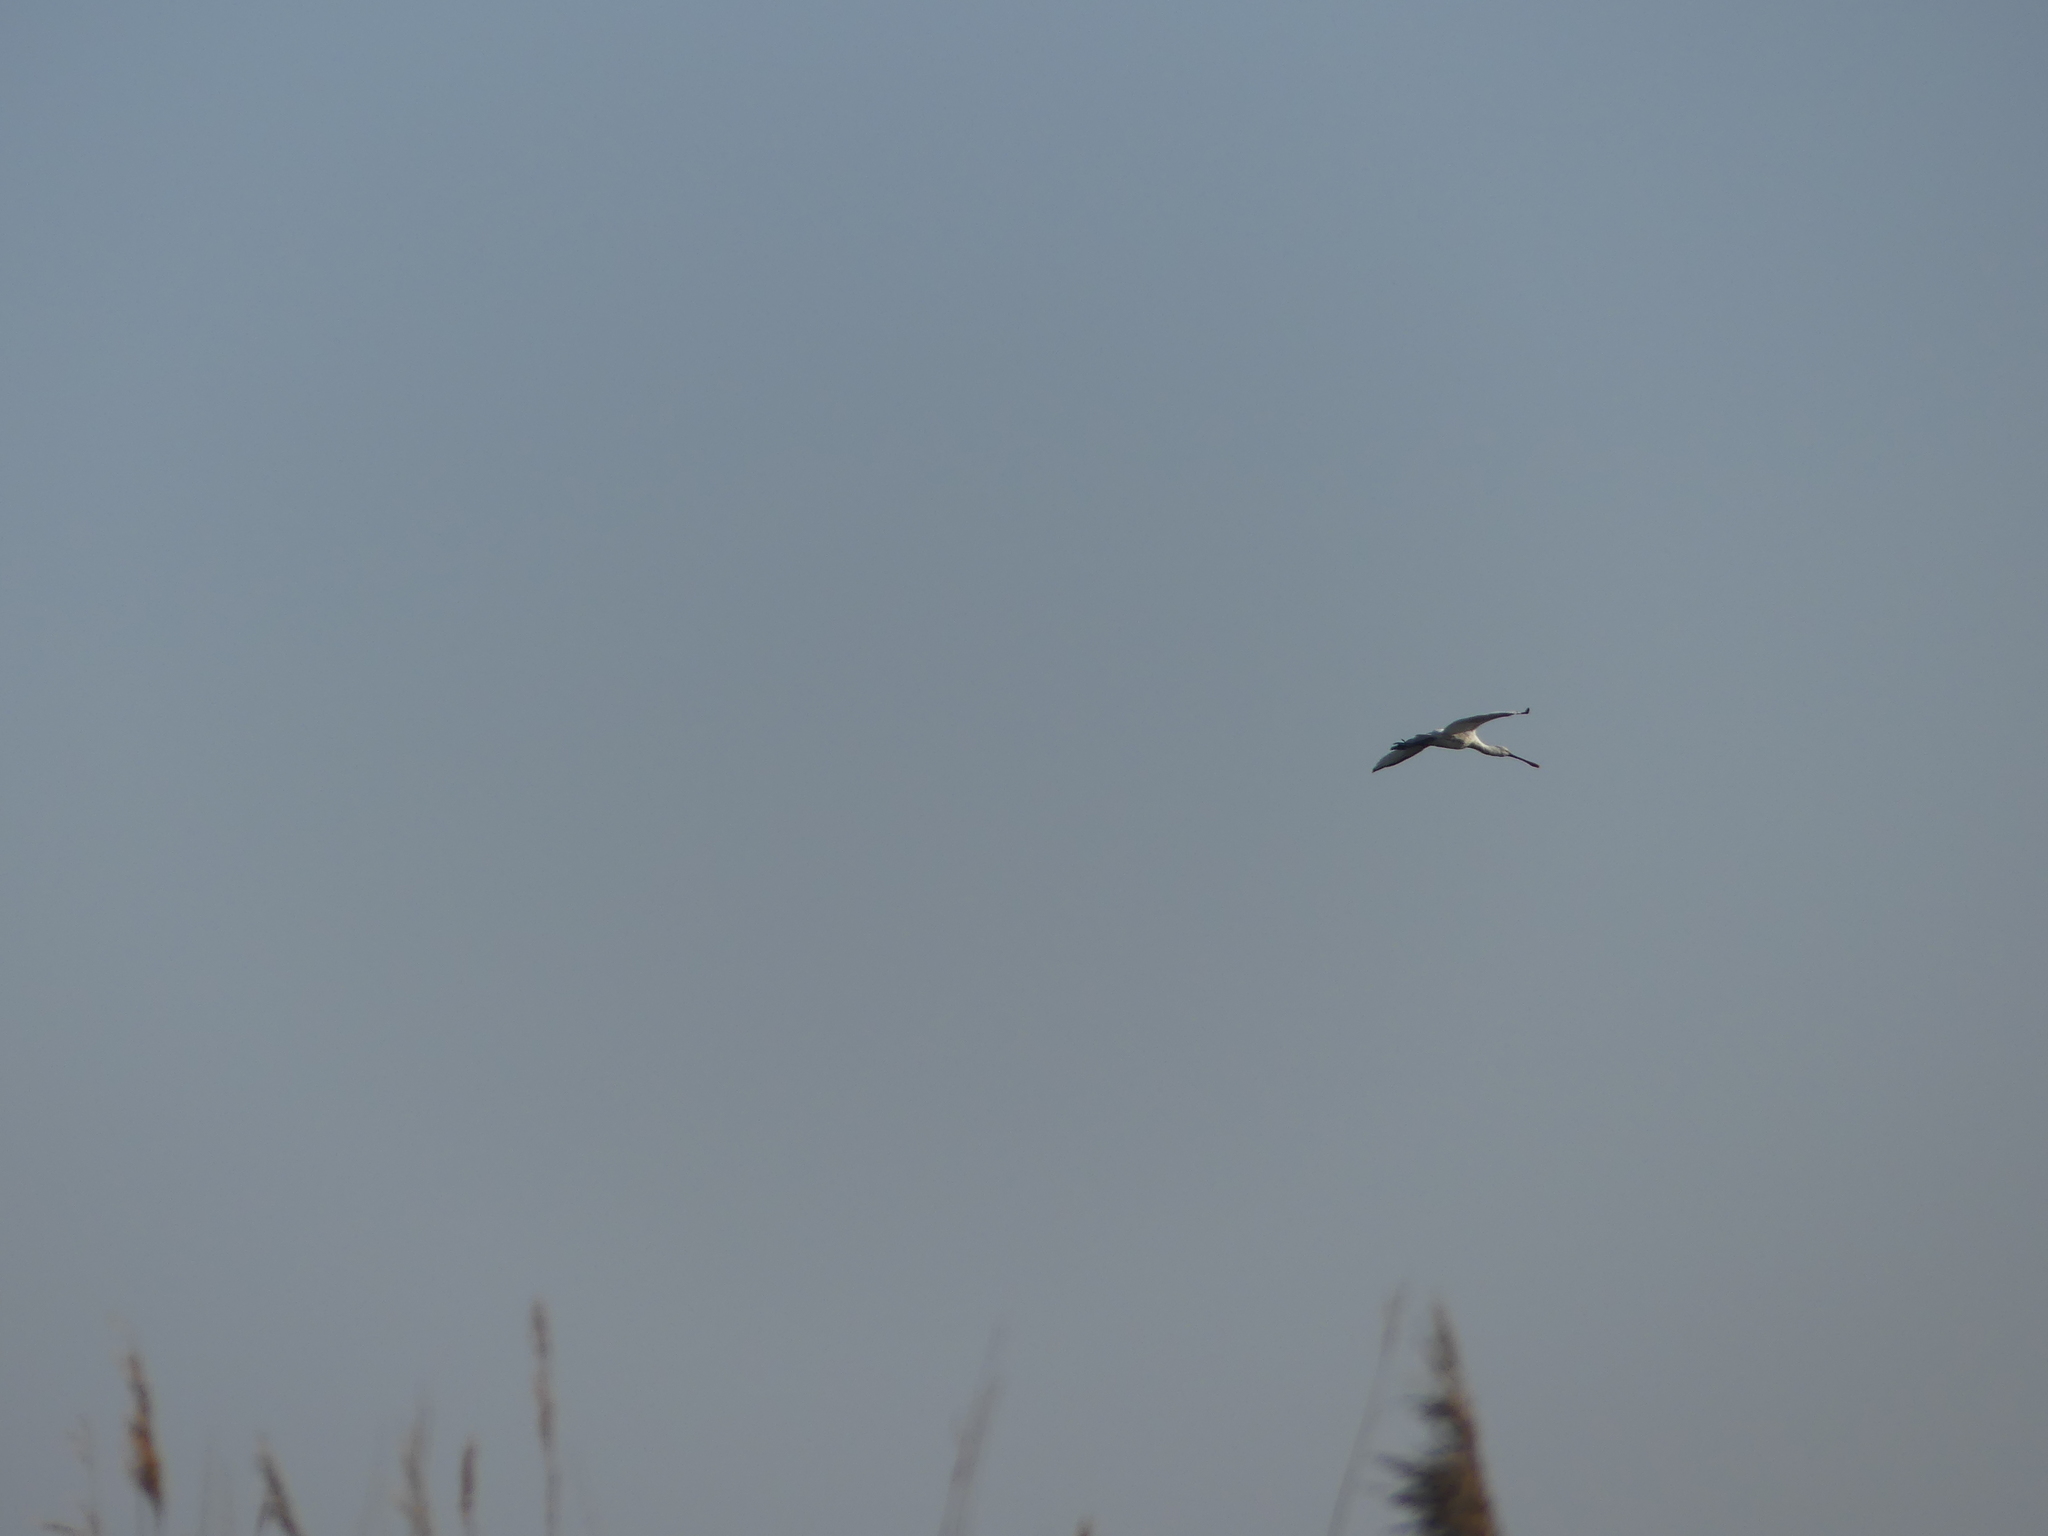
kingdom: Animalia
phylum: Chordata
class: Aves
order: Pelecaniformes
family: Threskiornithidae
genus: Platalea
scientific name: Platalea leucorodia
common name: Eurasian spoonbill
